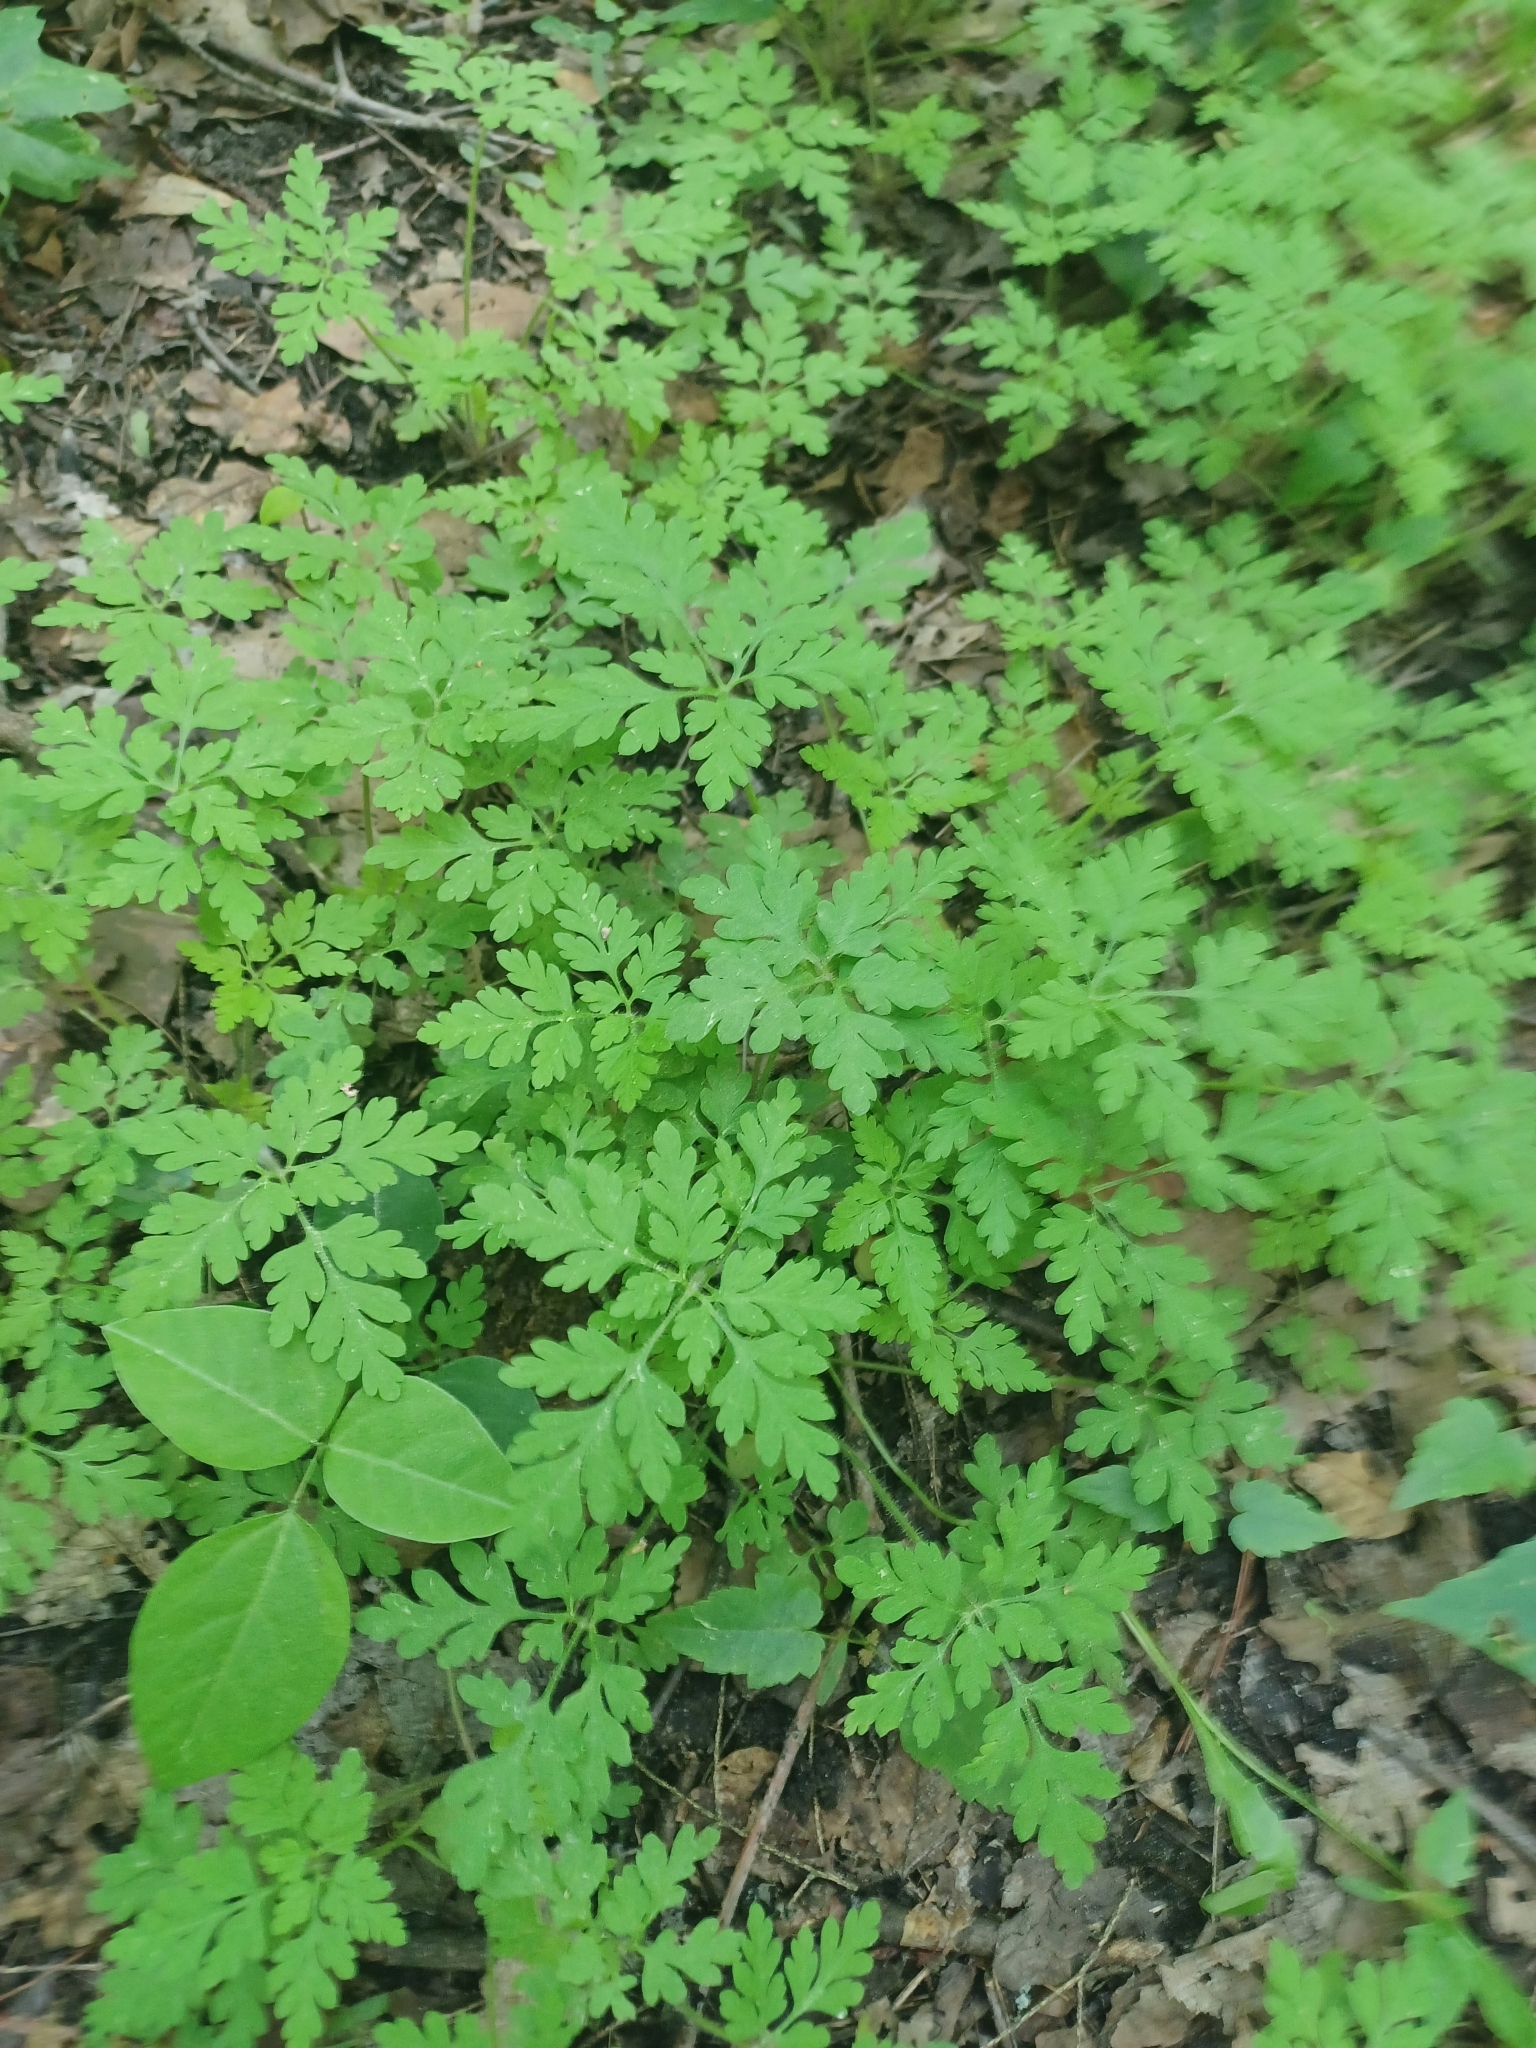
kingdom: Plantae
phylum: Tracheophyta
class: Magnoliopsida
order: Geraniales
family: Geraniaceae
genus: Geranium
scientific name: Geranium robertianum
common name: Herb-robert
